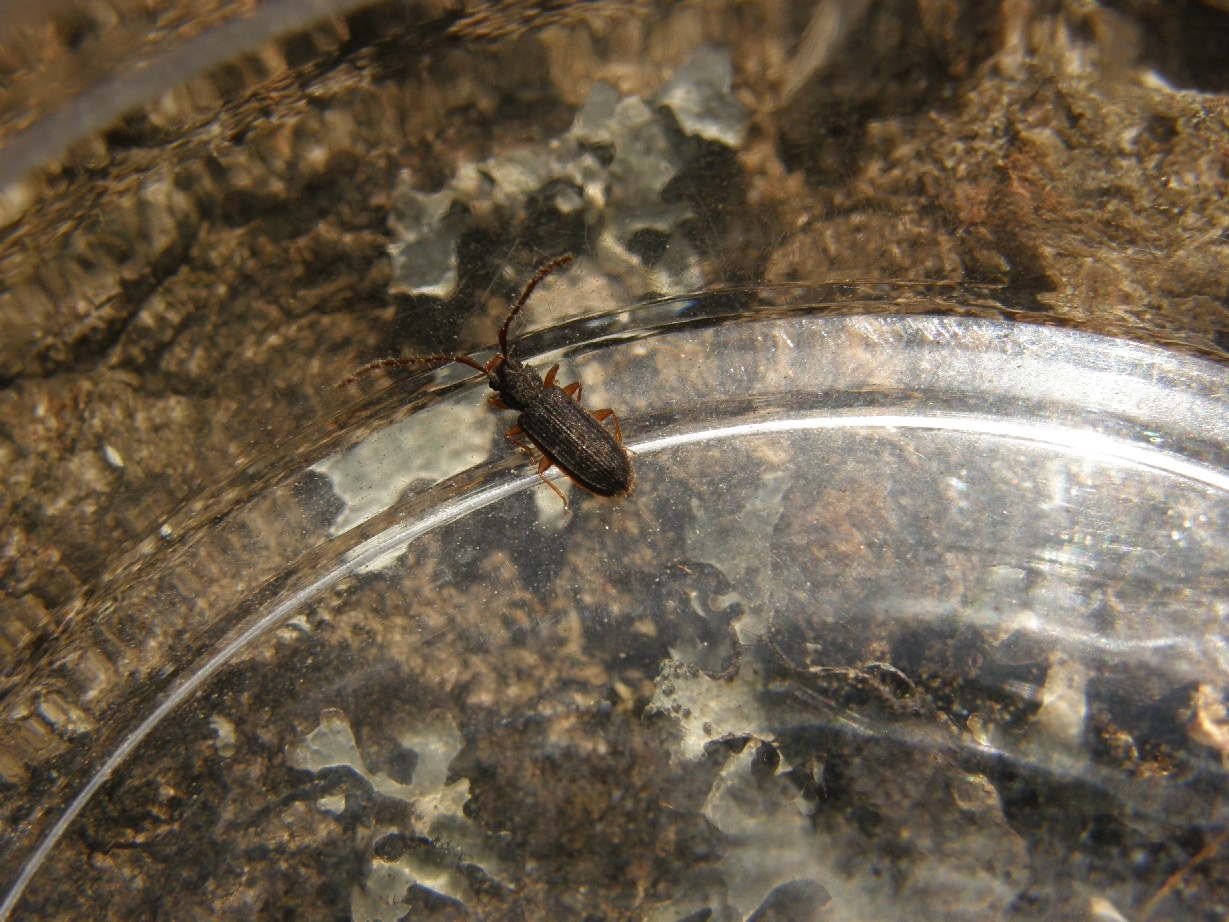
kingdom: Animalia
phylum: Arthropoda
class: Insecta
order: Coleoptera
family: Silvanidae
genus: Uleiota
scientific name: Uleiota planatus
